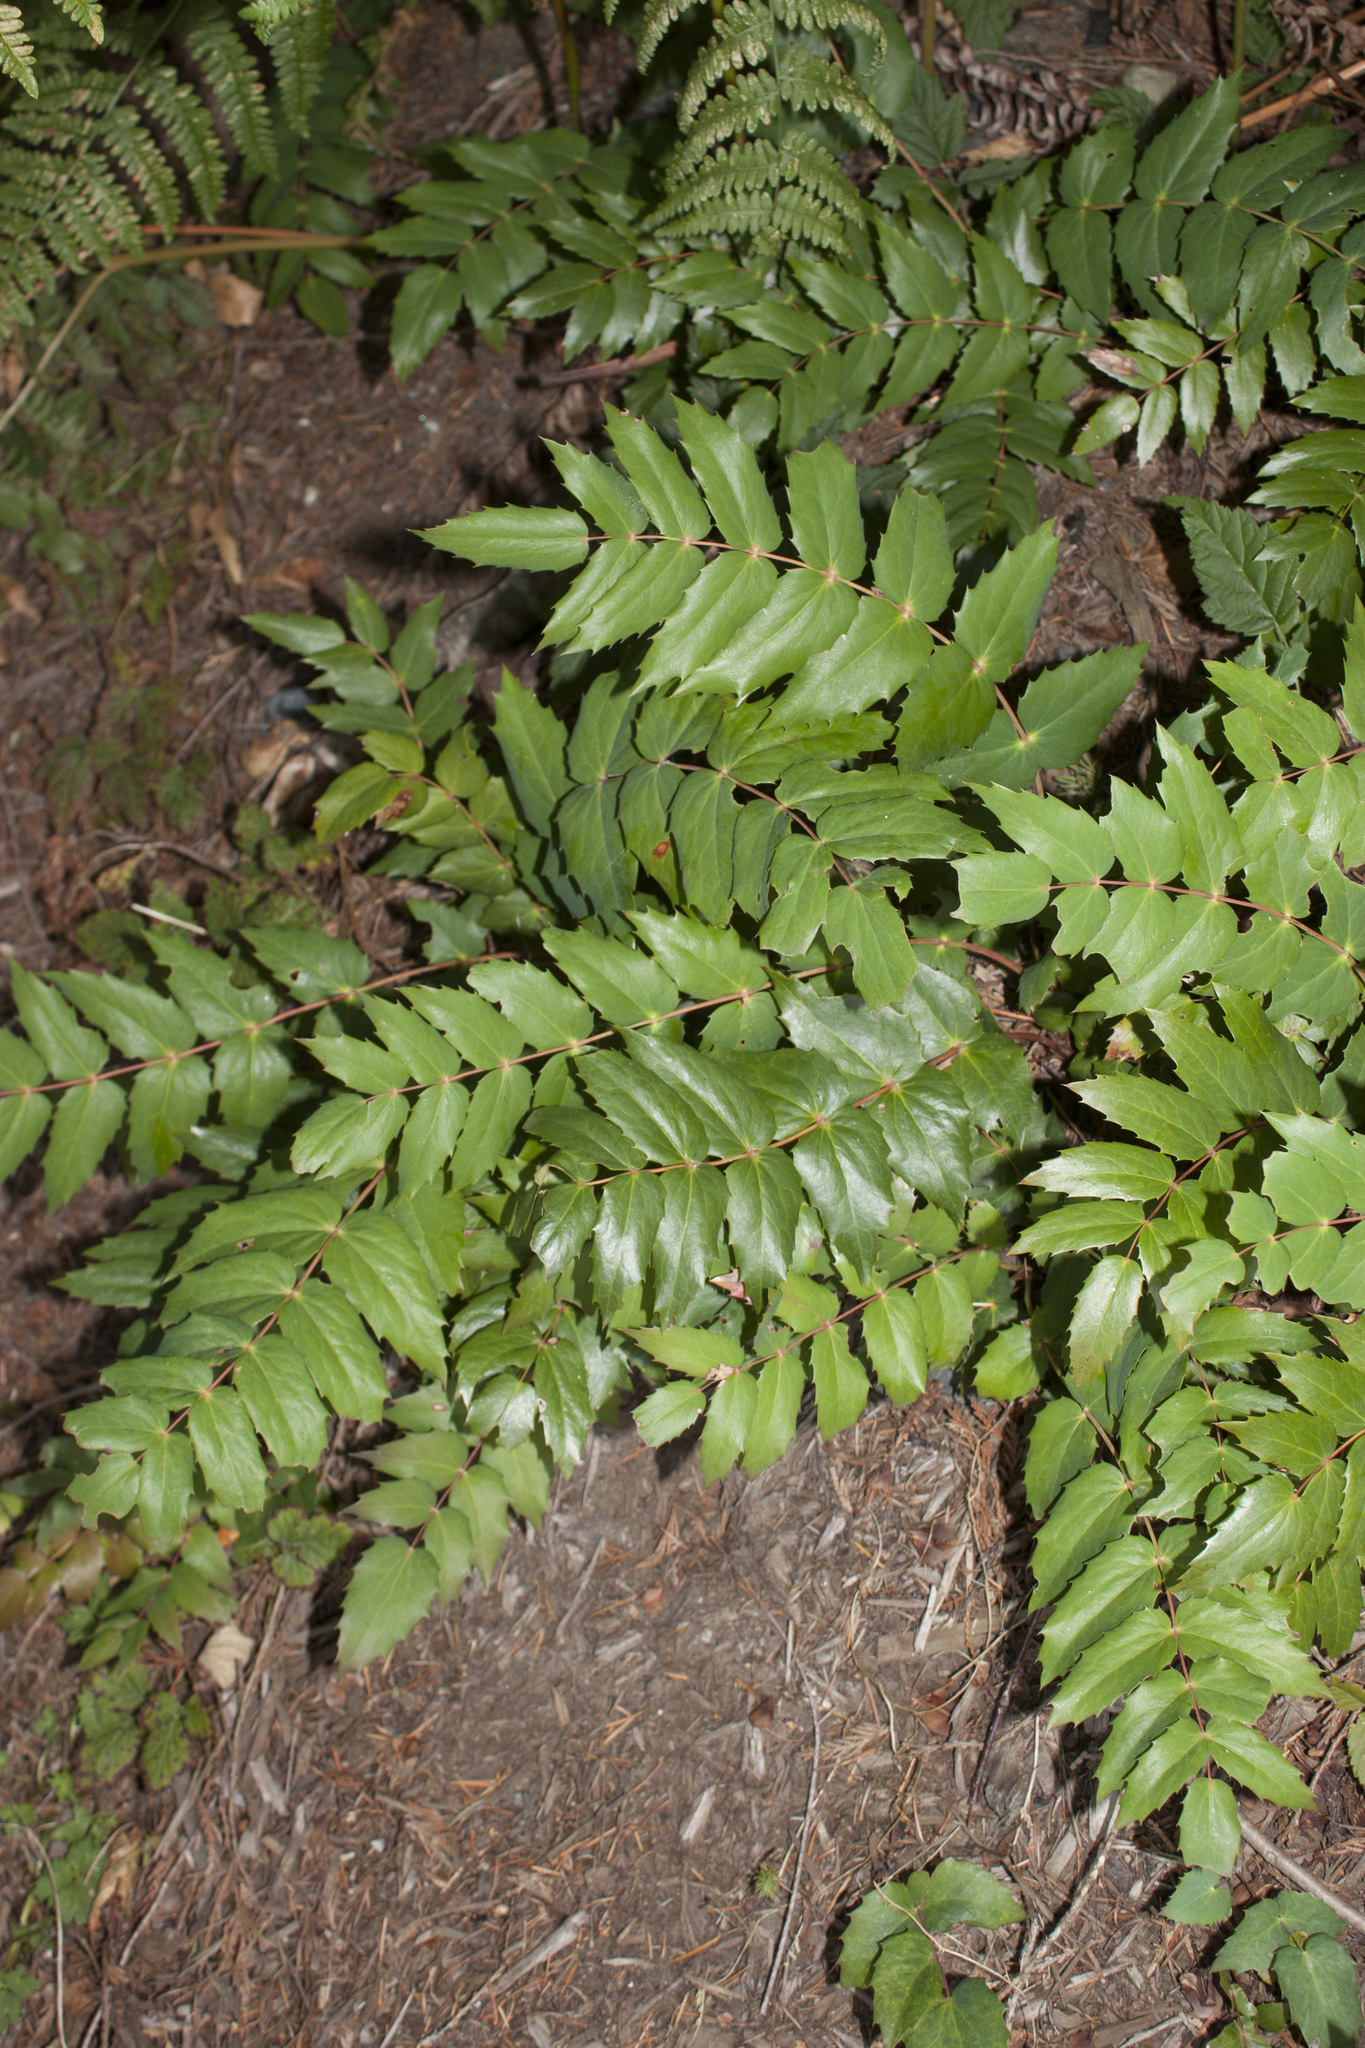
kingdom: Plantae
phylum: Tracheophyta
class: Magnoliopsida
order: Ranunculales
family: Berberidaceae
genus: Mahonia
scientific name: Mahonia nervosa
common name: Cascade oregon-grape
